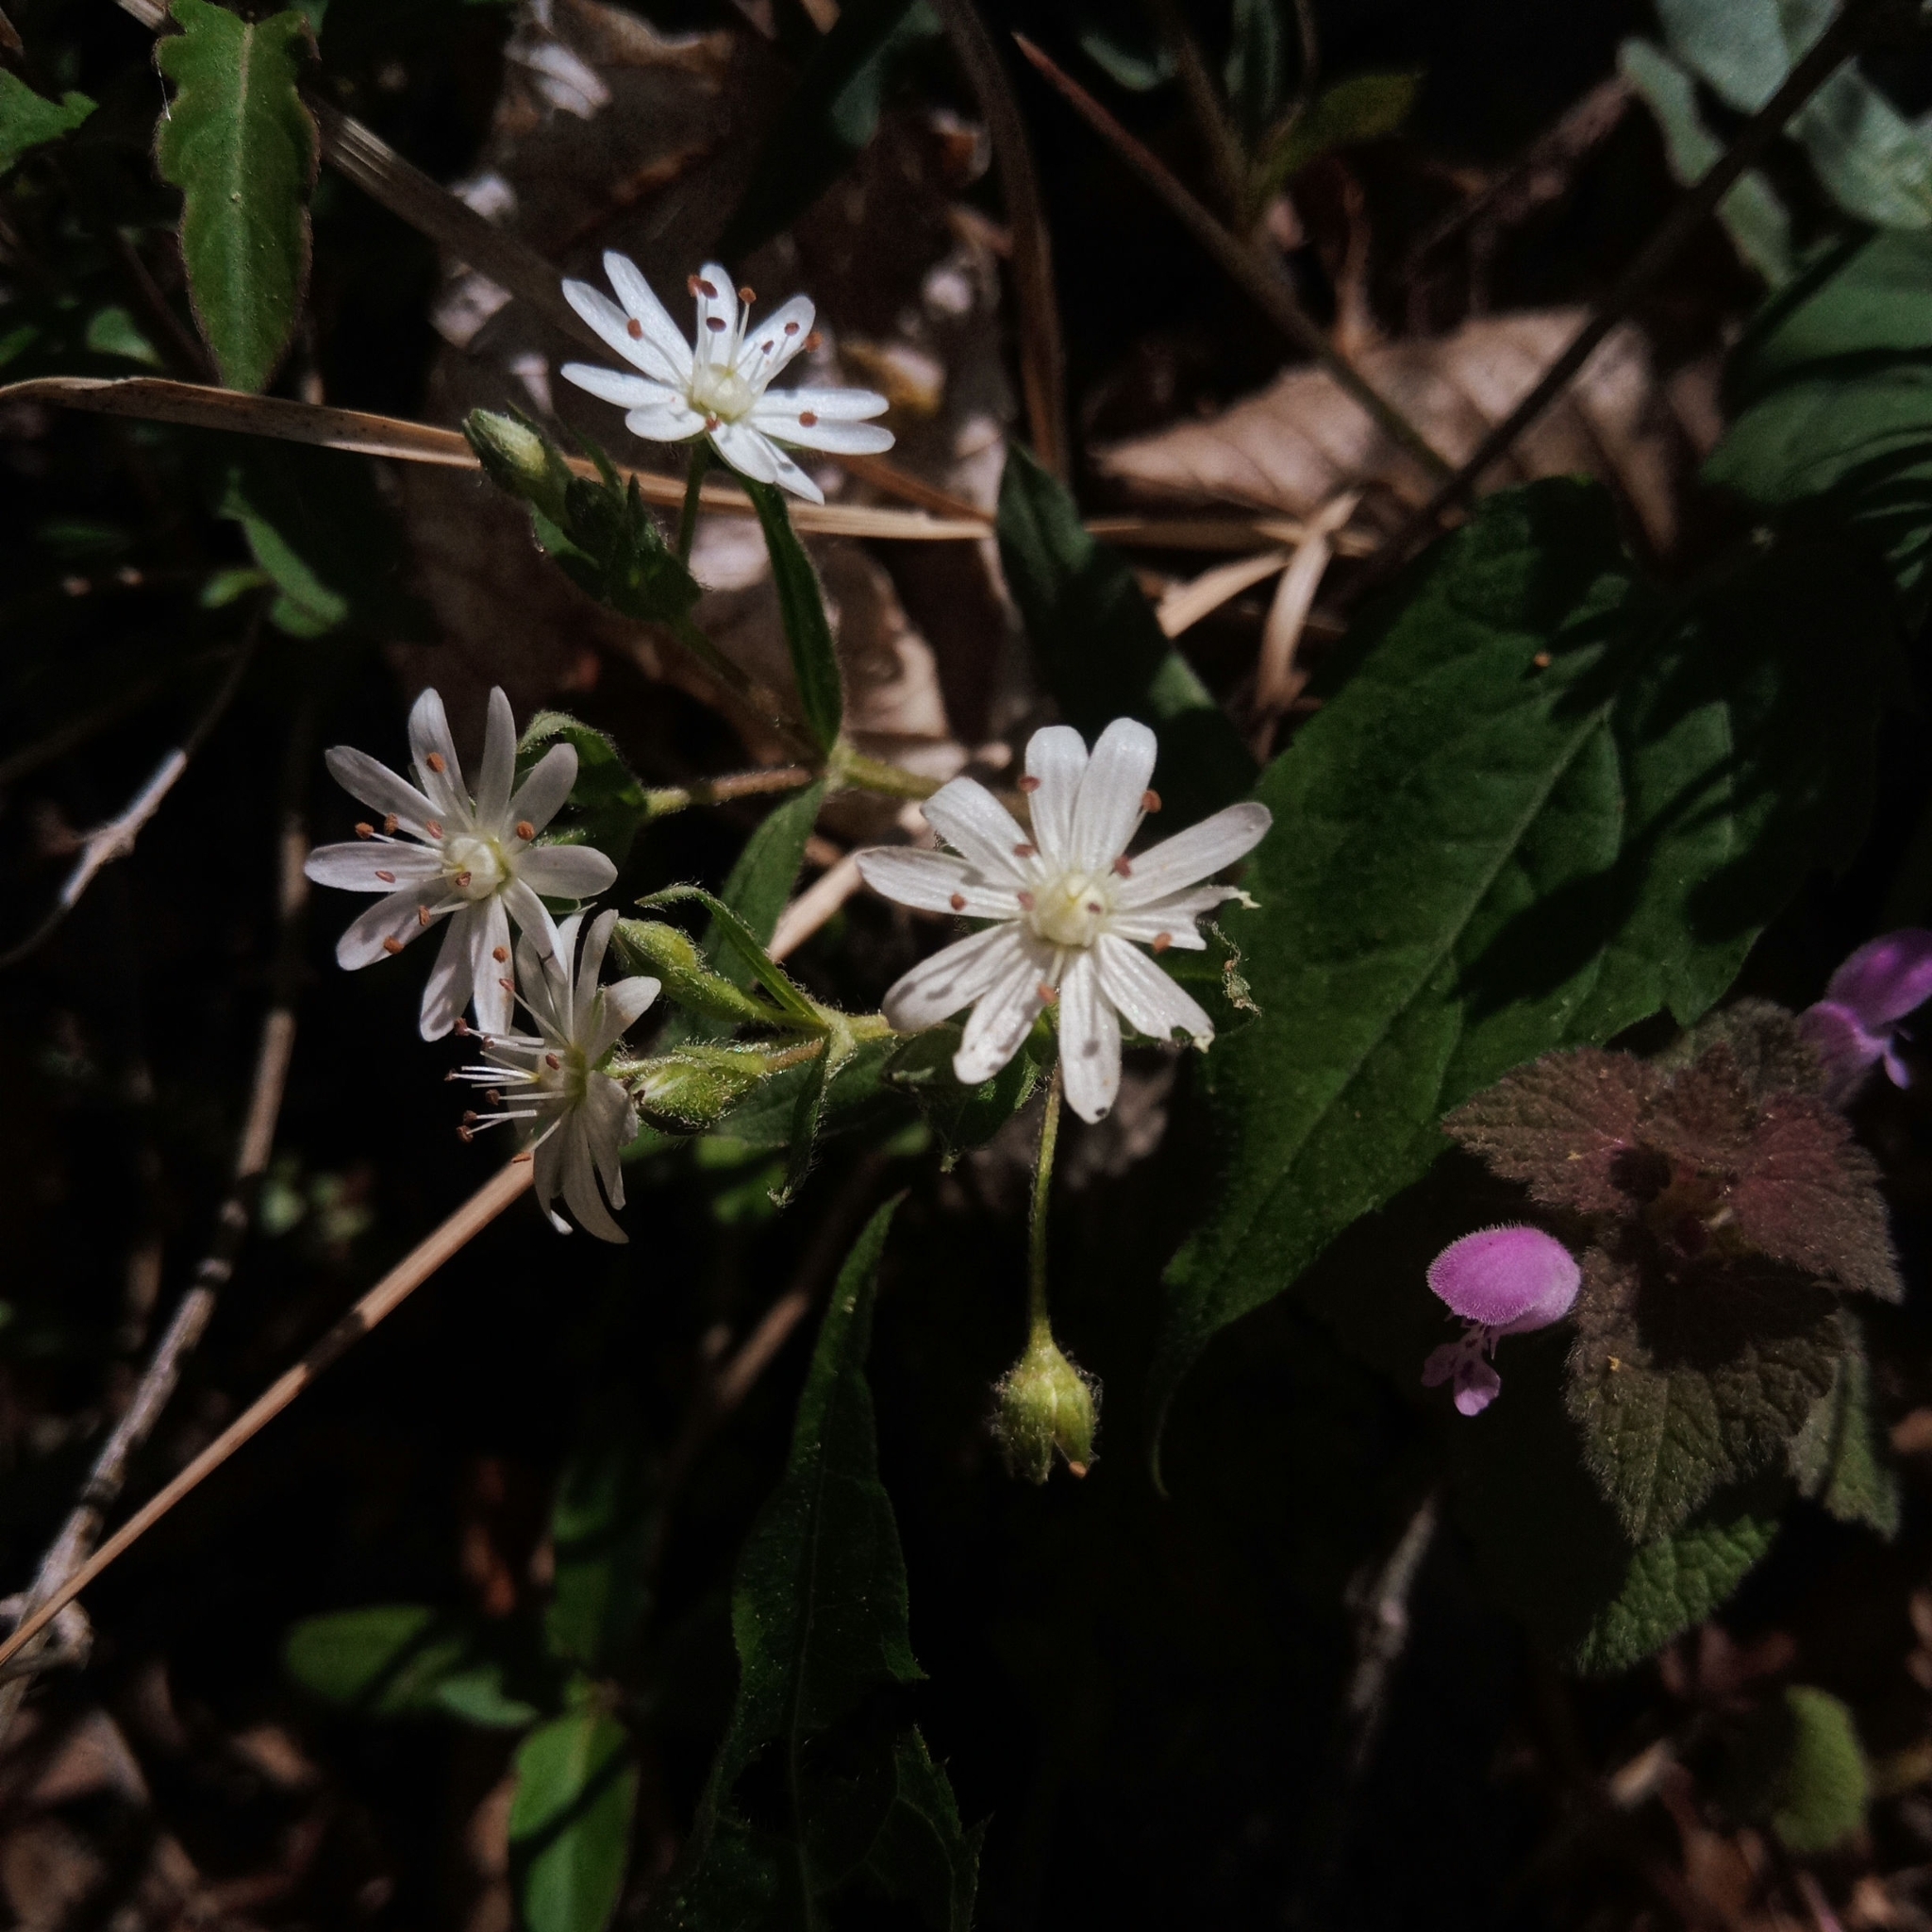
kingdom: Plantae
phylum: Tracheophyta
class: Magnoliopsida
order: Caryophyllales
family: Caryophyllaceae
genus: Stellaria
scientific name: Stellaria pubera
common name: Star chickweed
